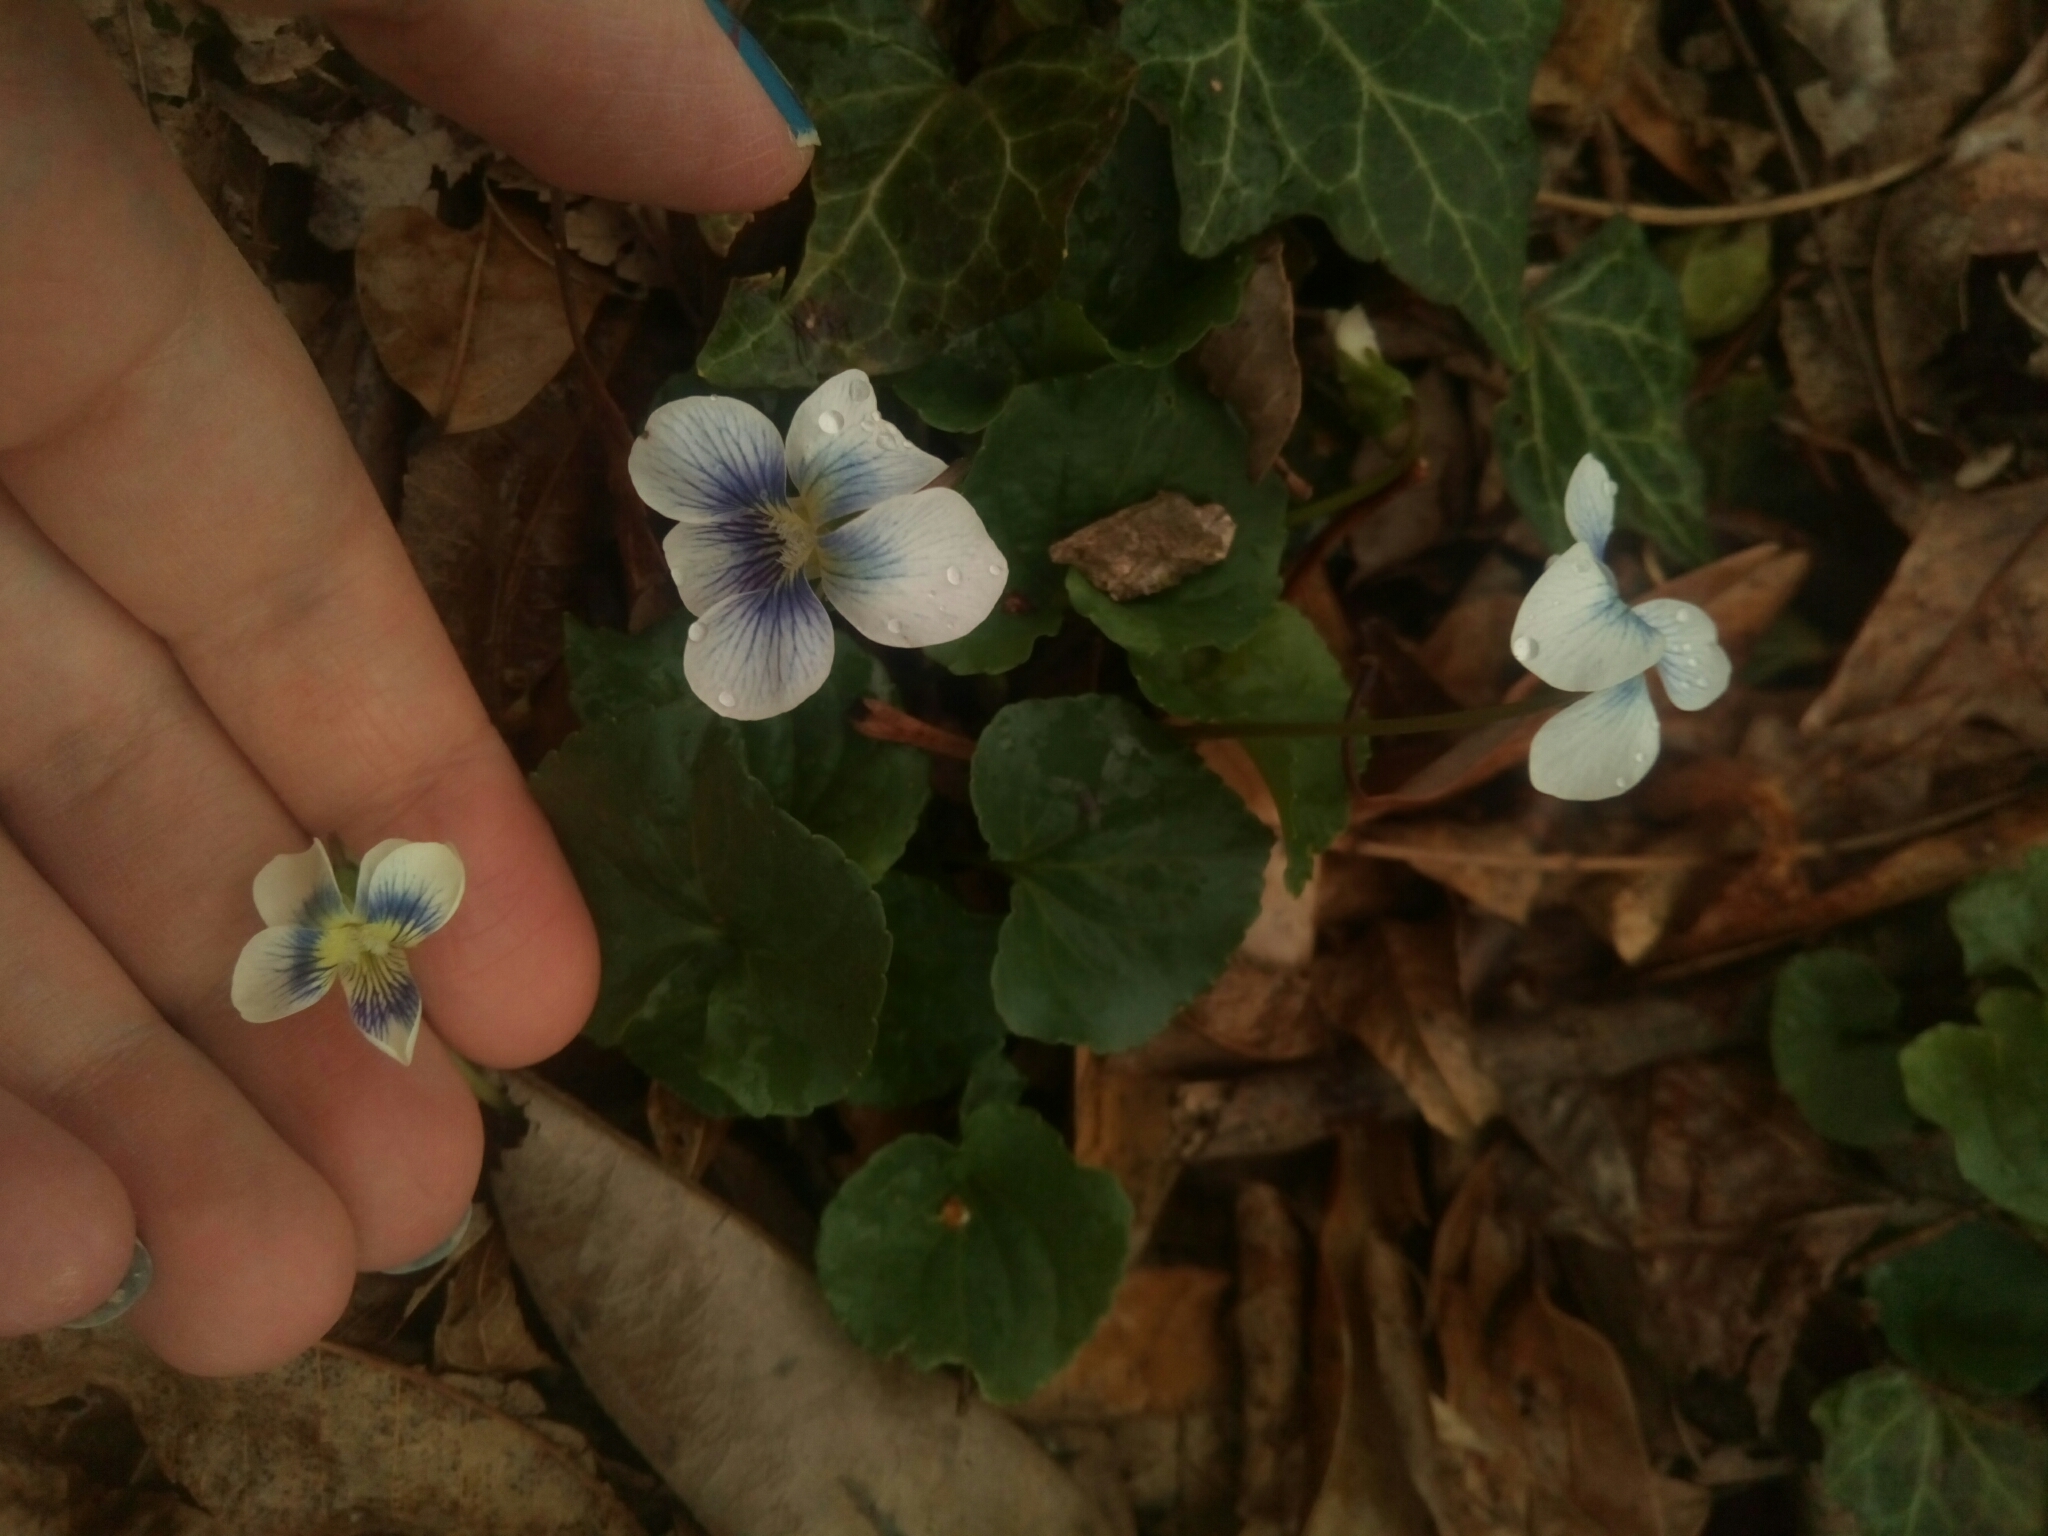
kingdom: Plantae
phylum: Tracheophyta
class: Magnoliopsida
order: Malpighiales
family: Violaceae
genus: Viola
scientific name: Viola sororia
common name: Dooryard violet
